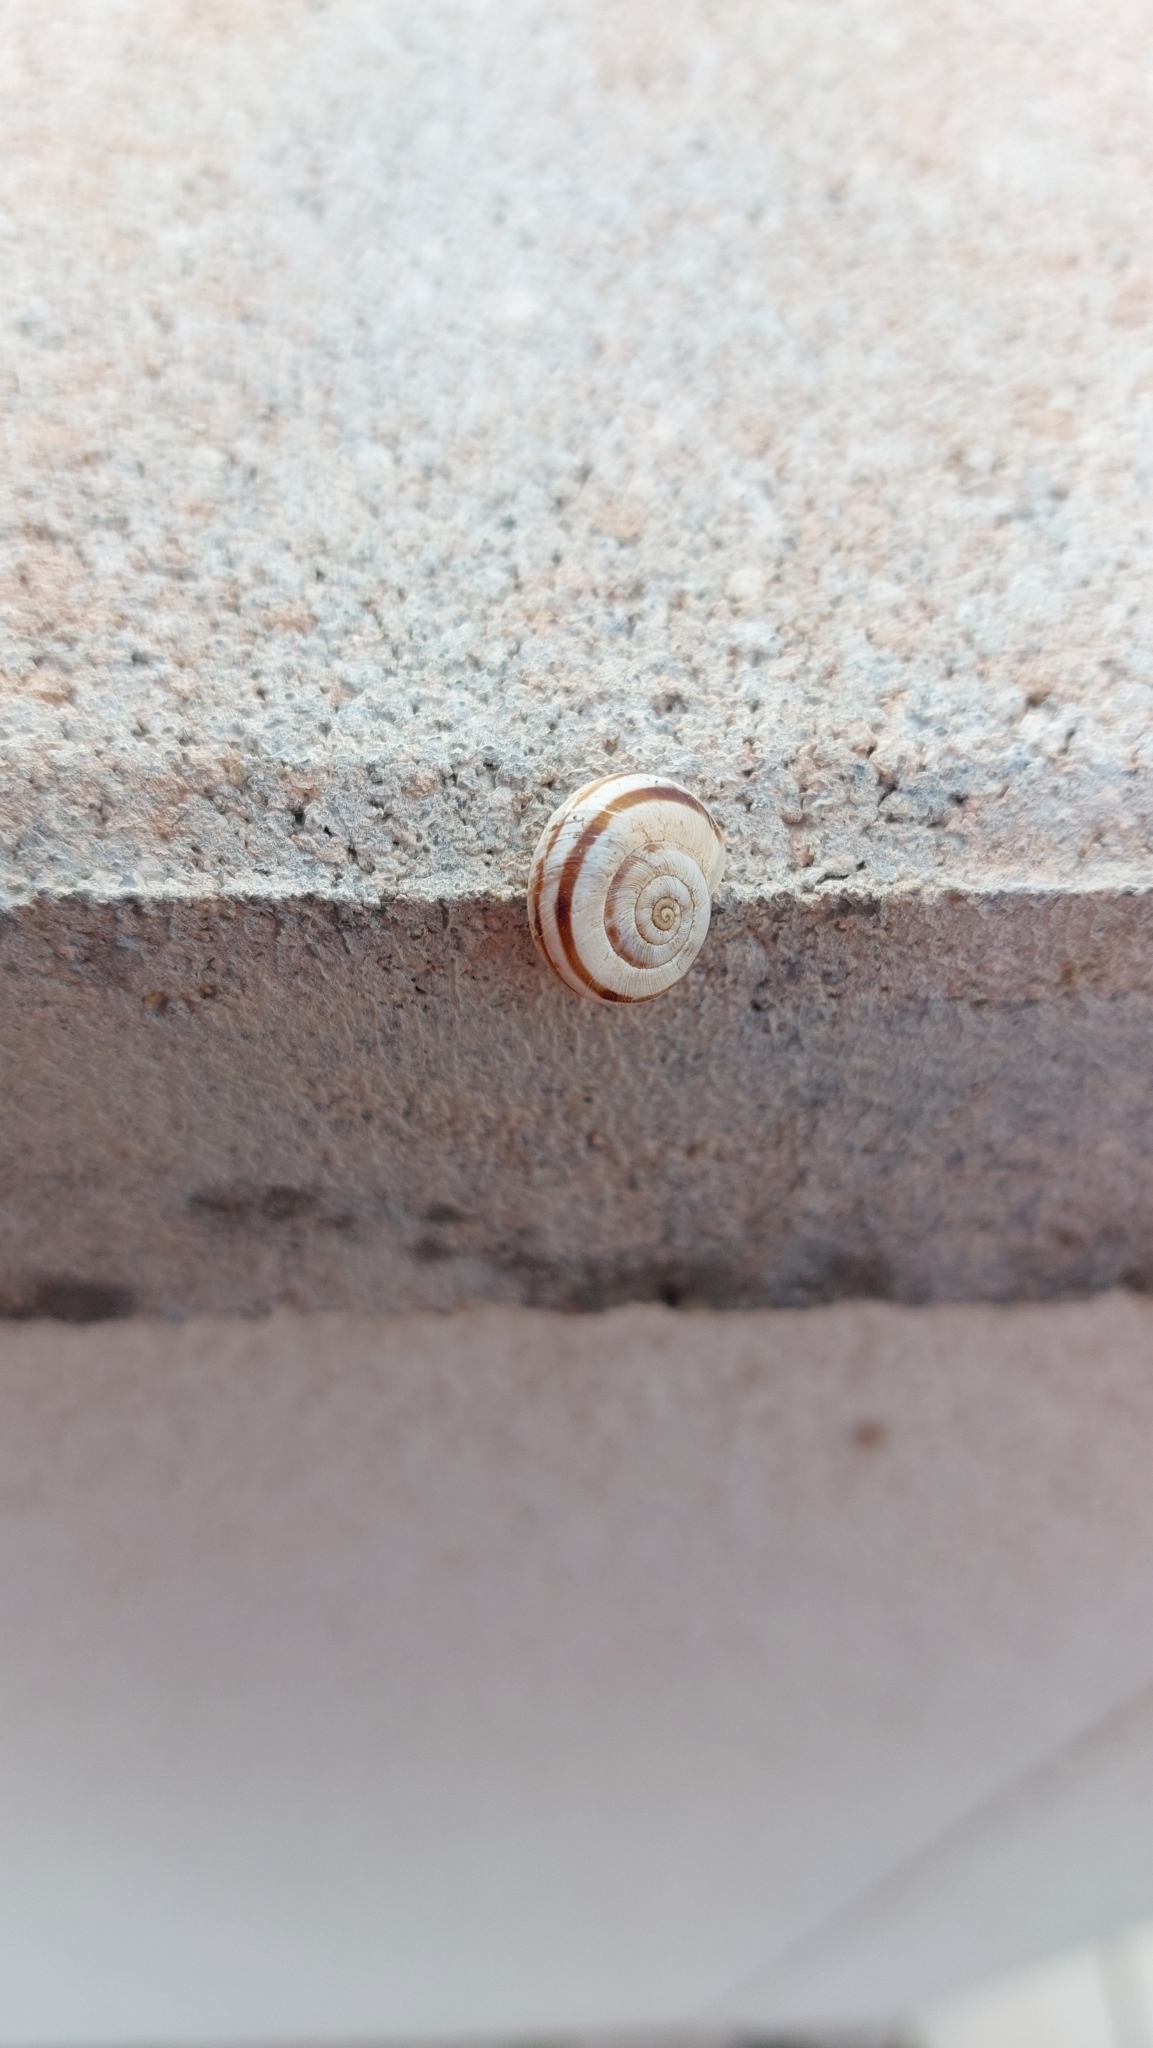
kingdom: Animalia
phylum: Mollusca
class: Gastropoda
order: Stylommatophora
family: Geomitridae
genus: Xerolenta
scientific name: Xerolenta obvia
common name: White heath snail
